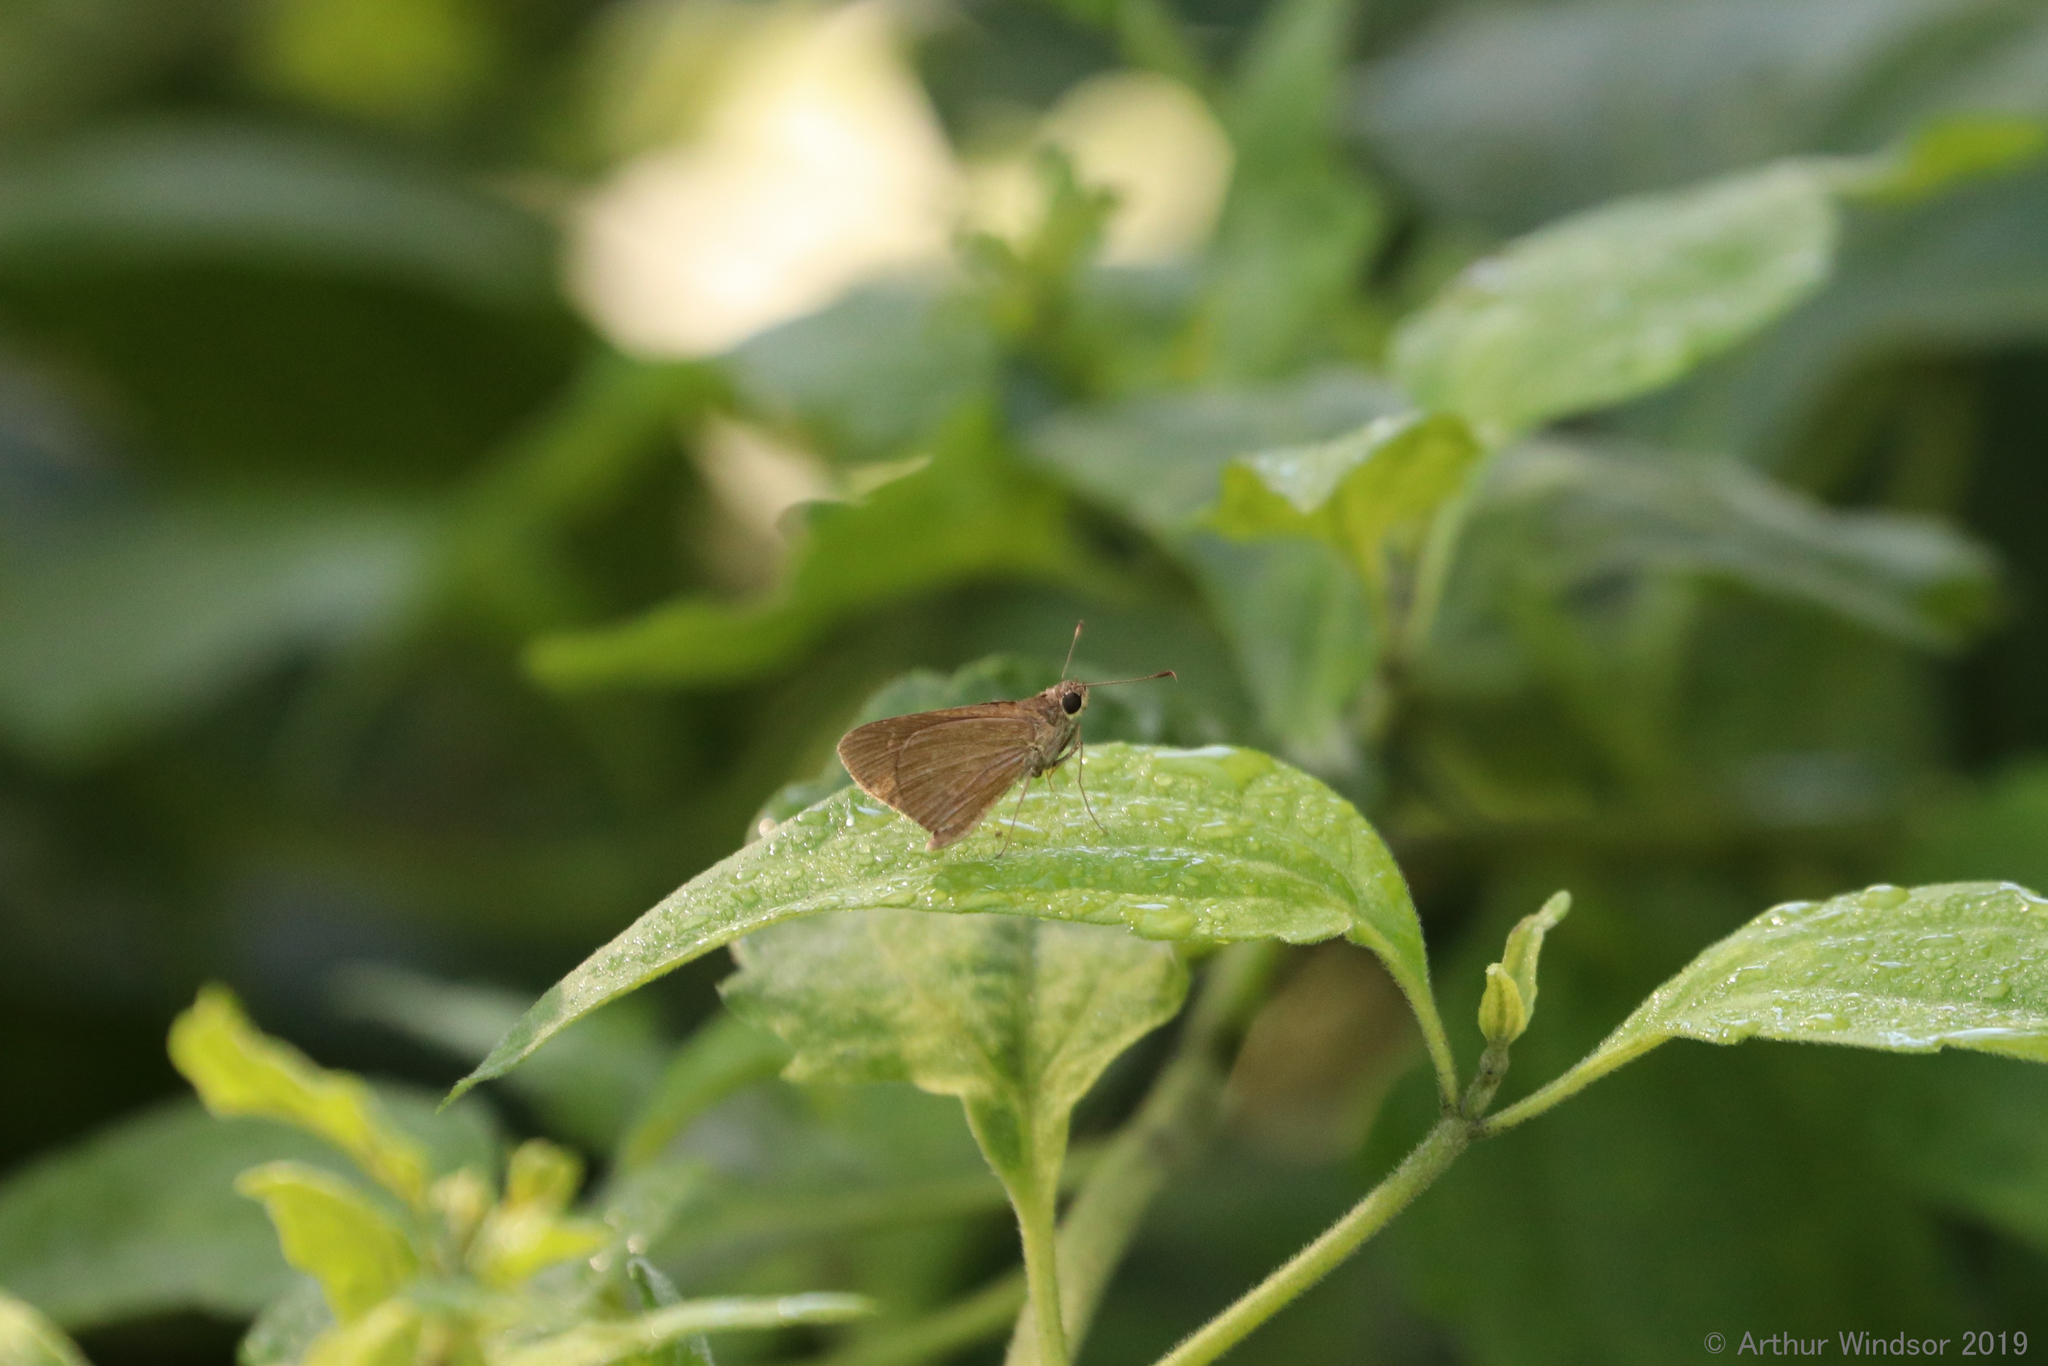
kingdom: Animalia
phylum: Arthropoda
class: Insecta
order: Lepidoptera
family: Hesperiidae
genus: Cymaenes
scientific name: Cymaenes tripunctus
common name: Dingy dotted skipper
